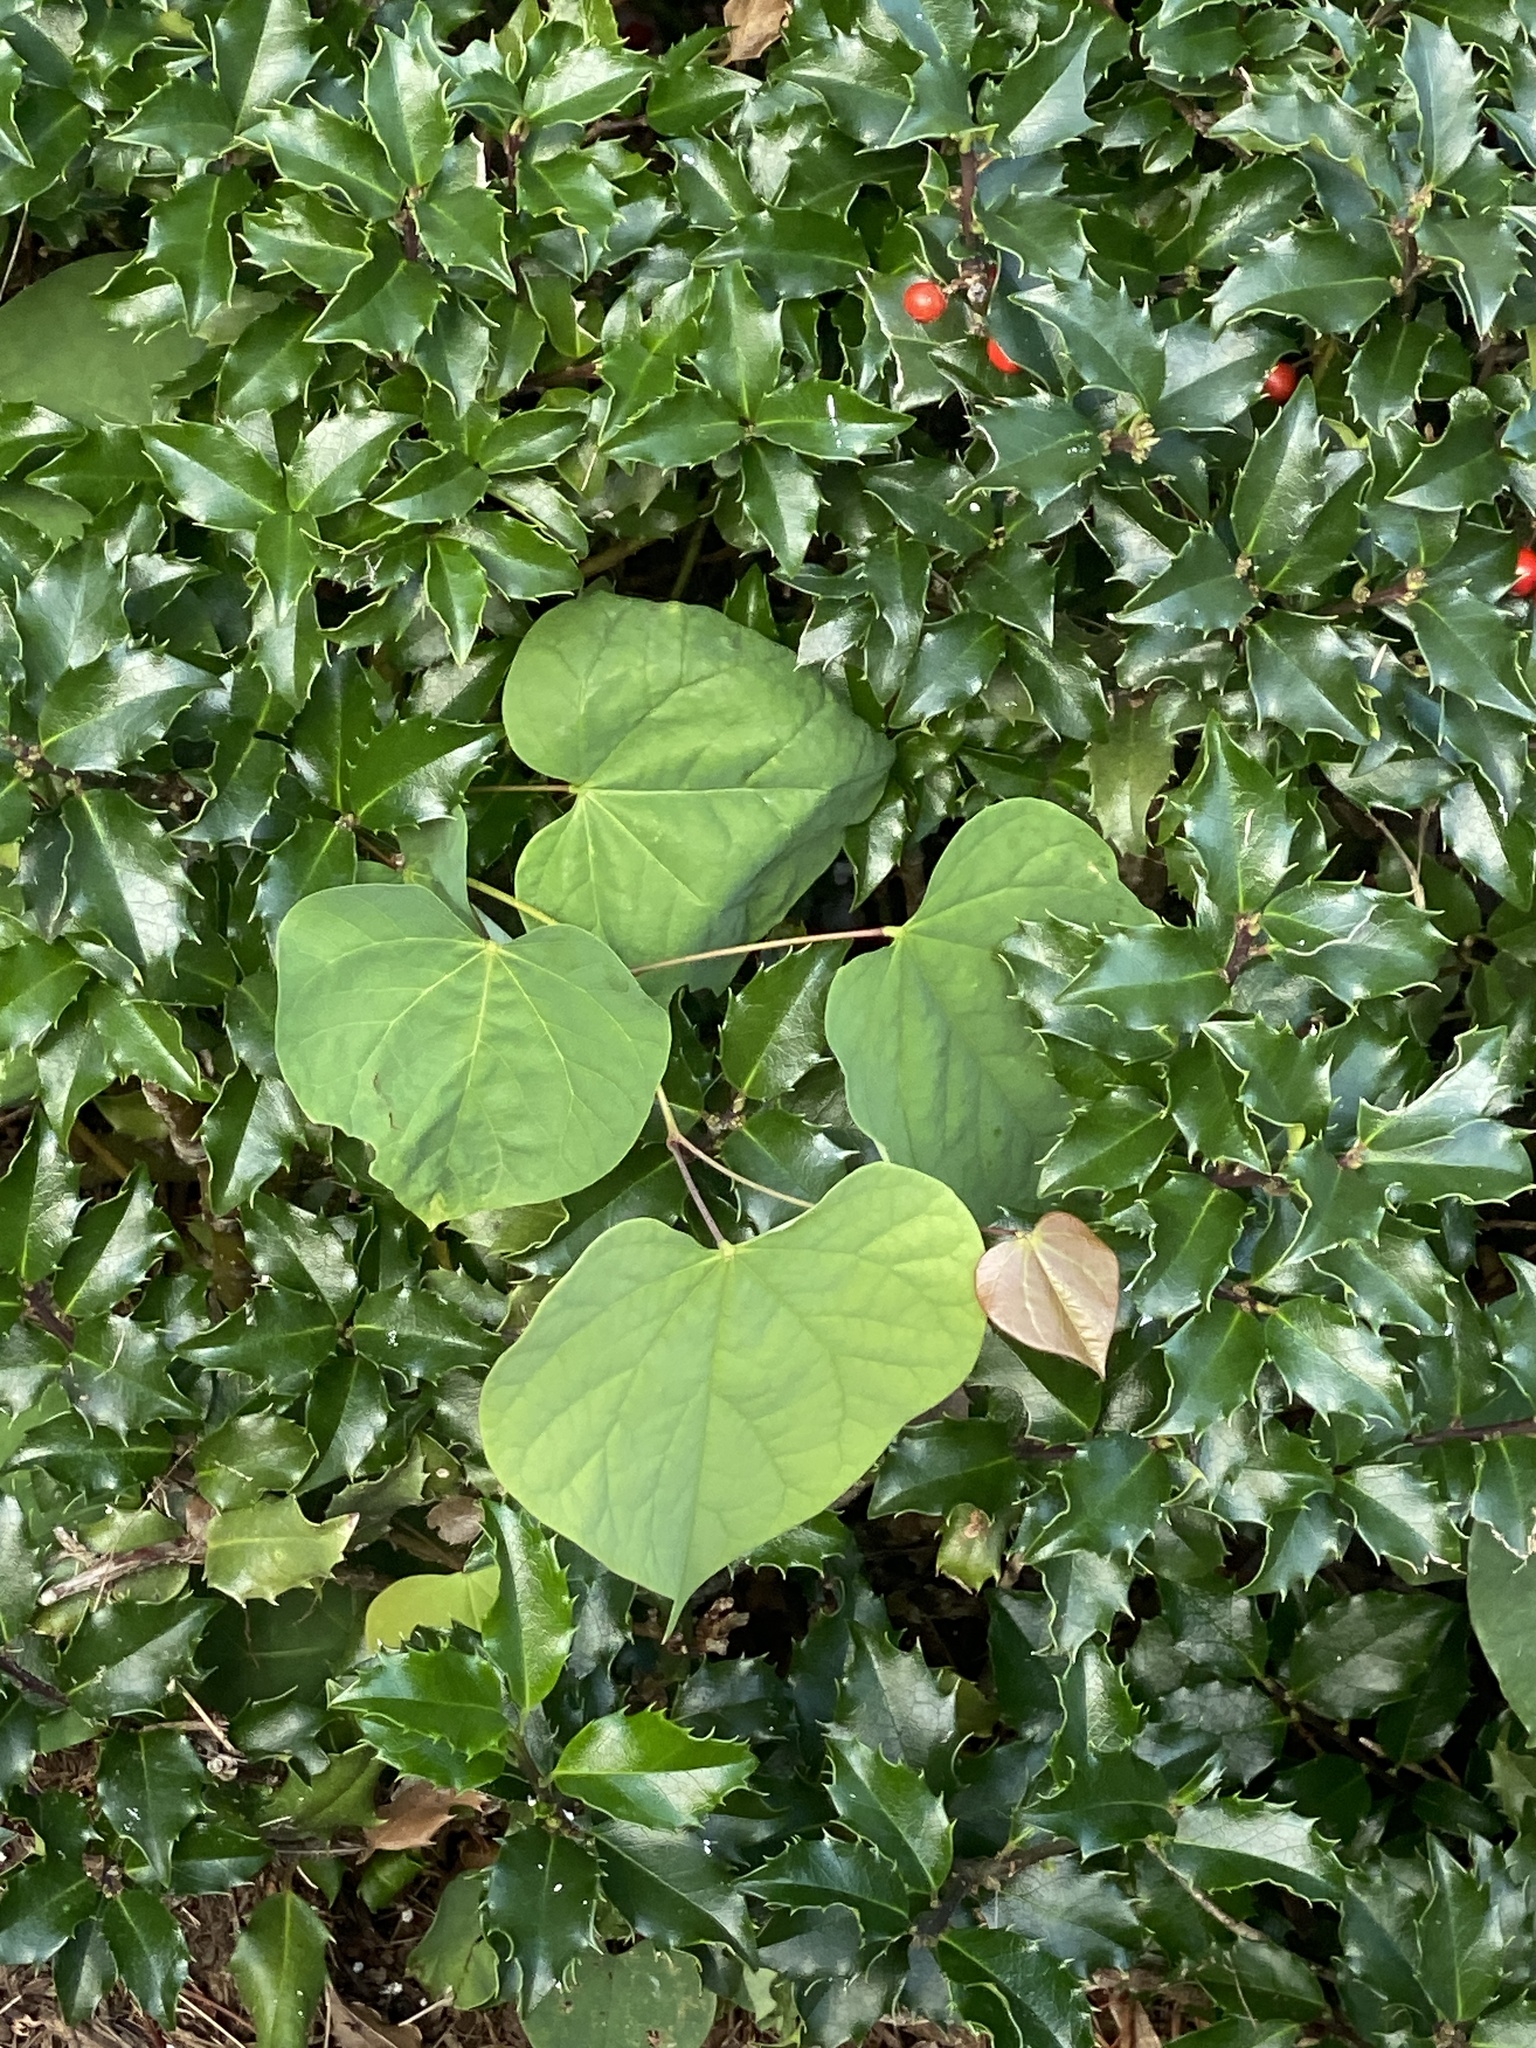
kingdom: Plantae
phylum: Tracheophyta
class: Magnoliopsida
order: Fabales
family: Fabaceae
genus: Cercis
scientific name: Cercis canadensis
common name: Eastern redbud
